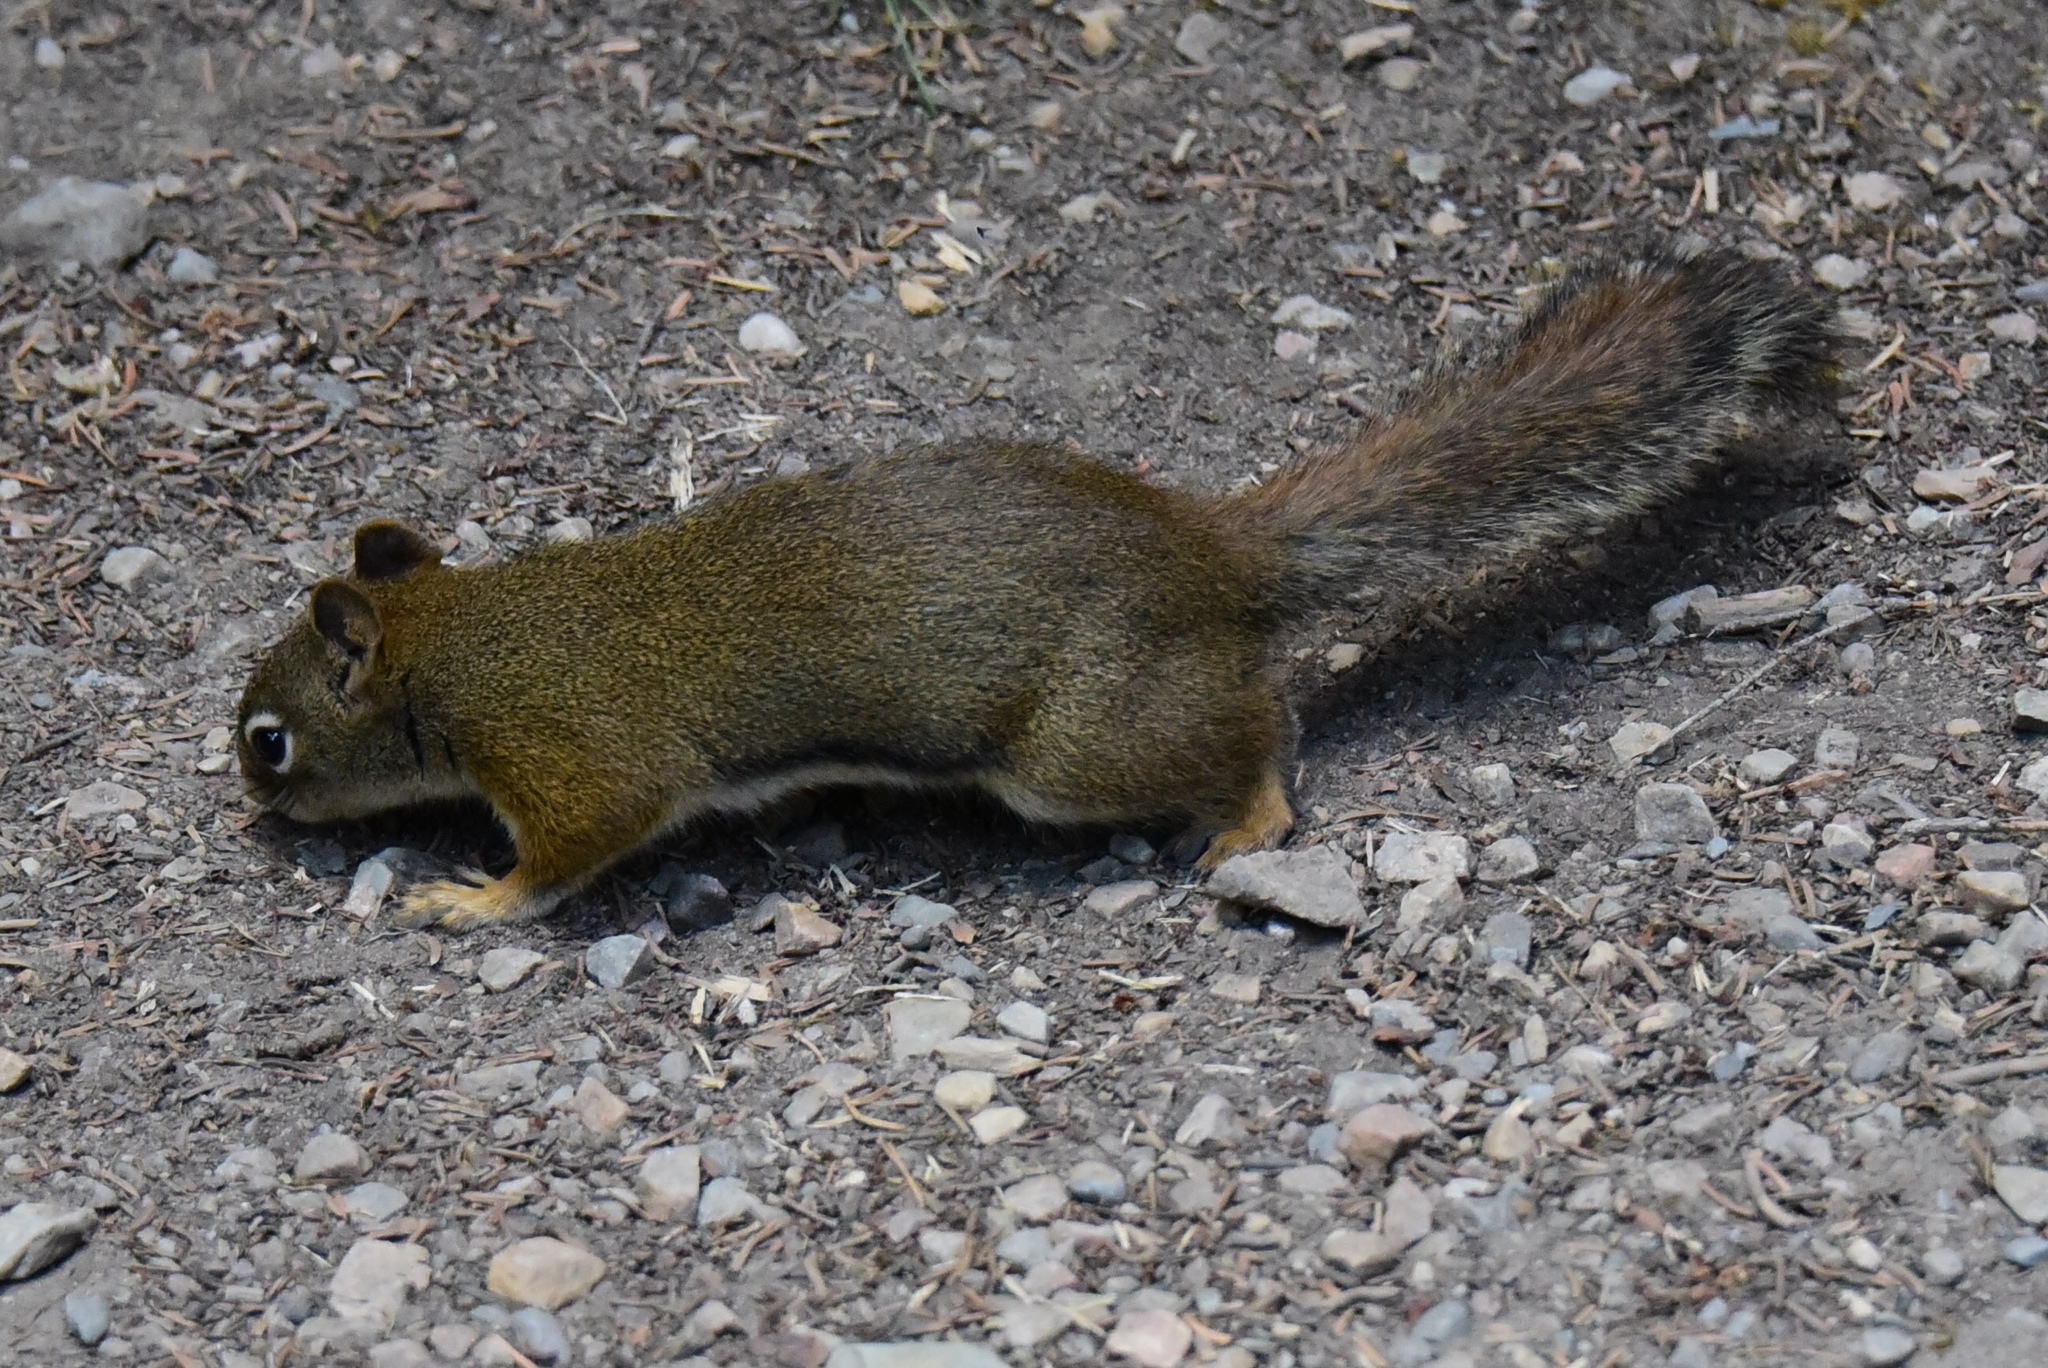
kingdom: Animalia
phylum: Chordata
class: Mammalia
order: Rodentia
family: Sciuridae
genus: Tamiasciurus
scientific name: Tamiasciurus hudsonicus
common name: Red squirrel
